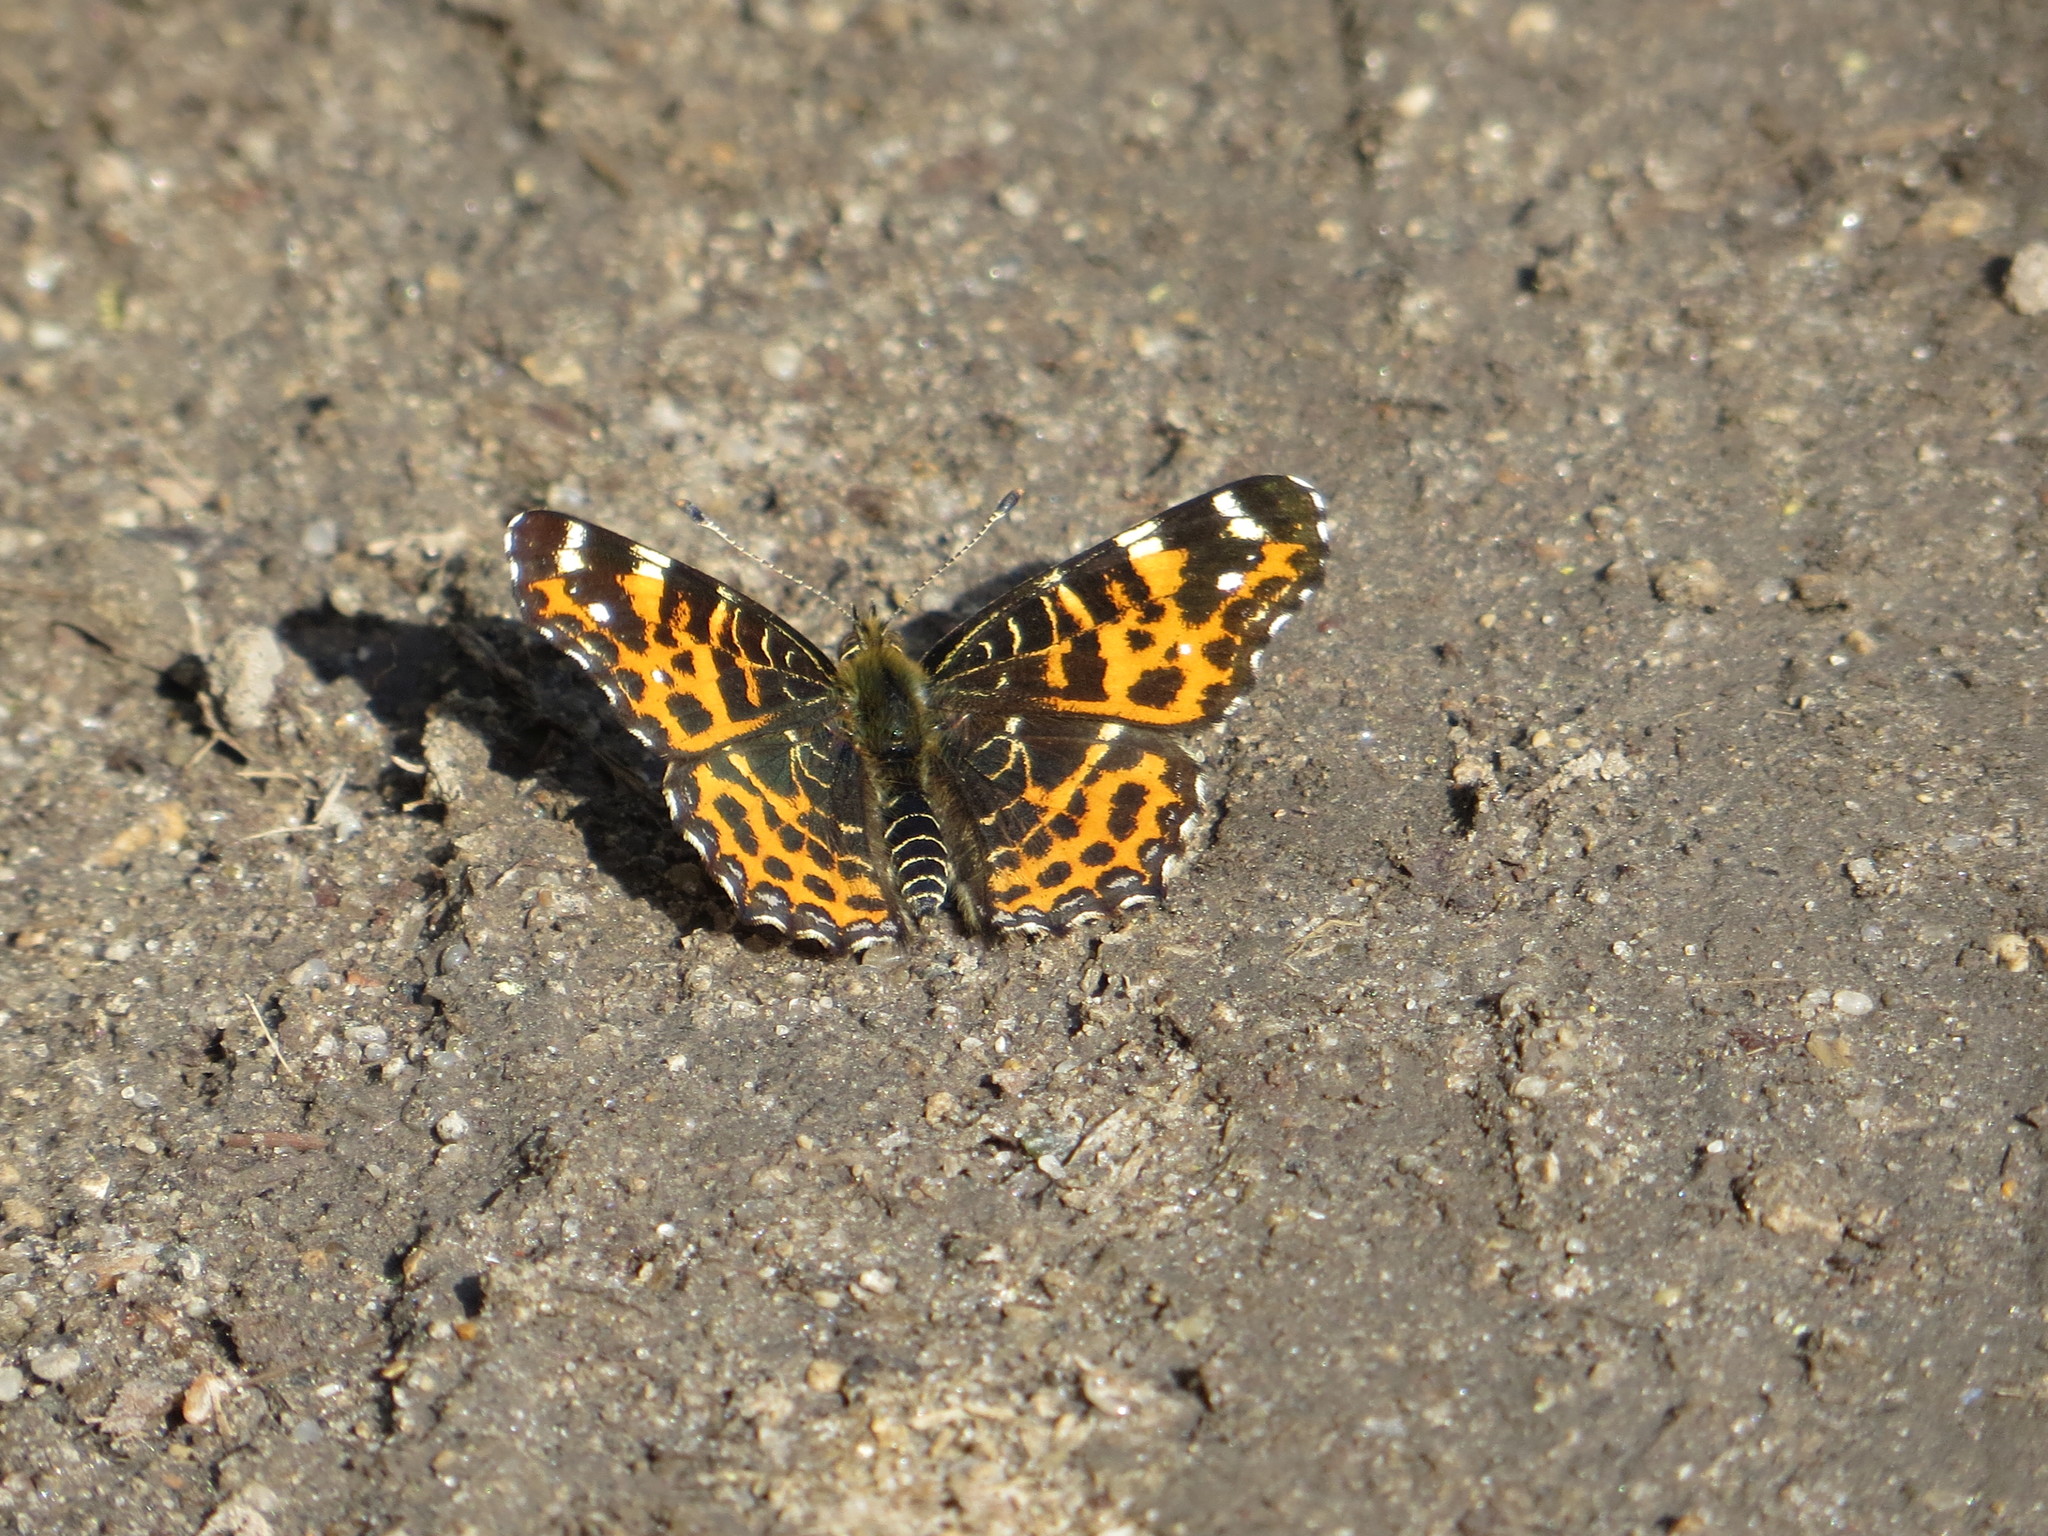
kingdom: Animalia
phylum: Arthropoda
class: Insecta
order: Lepidoptera
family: Nymphalidae
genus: Araschnia
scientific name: Araschnia levana
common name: Map butterfly
